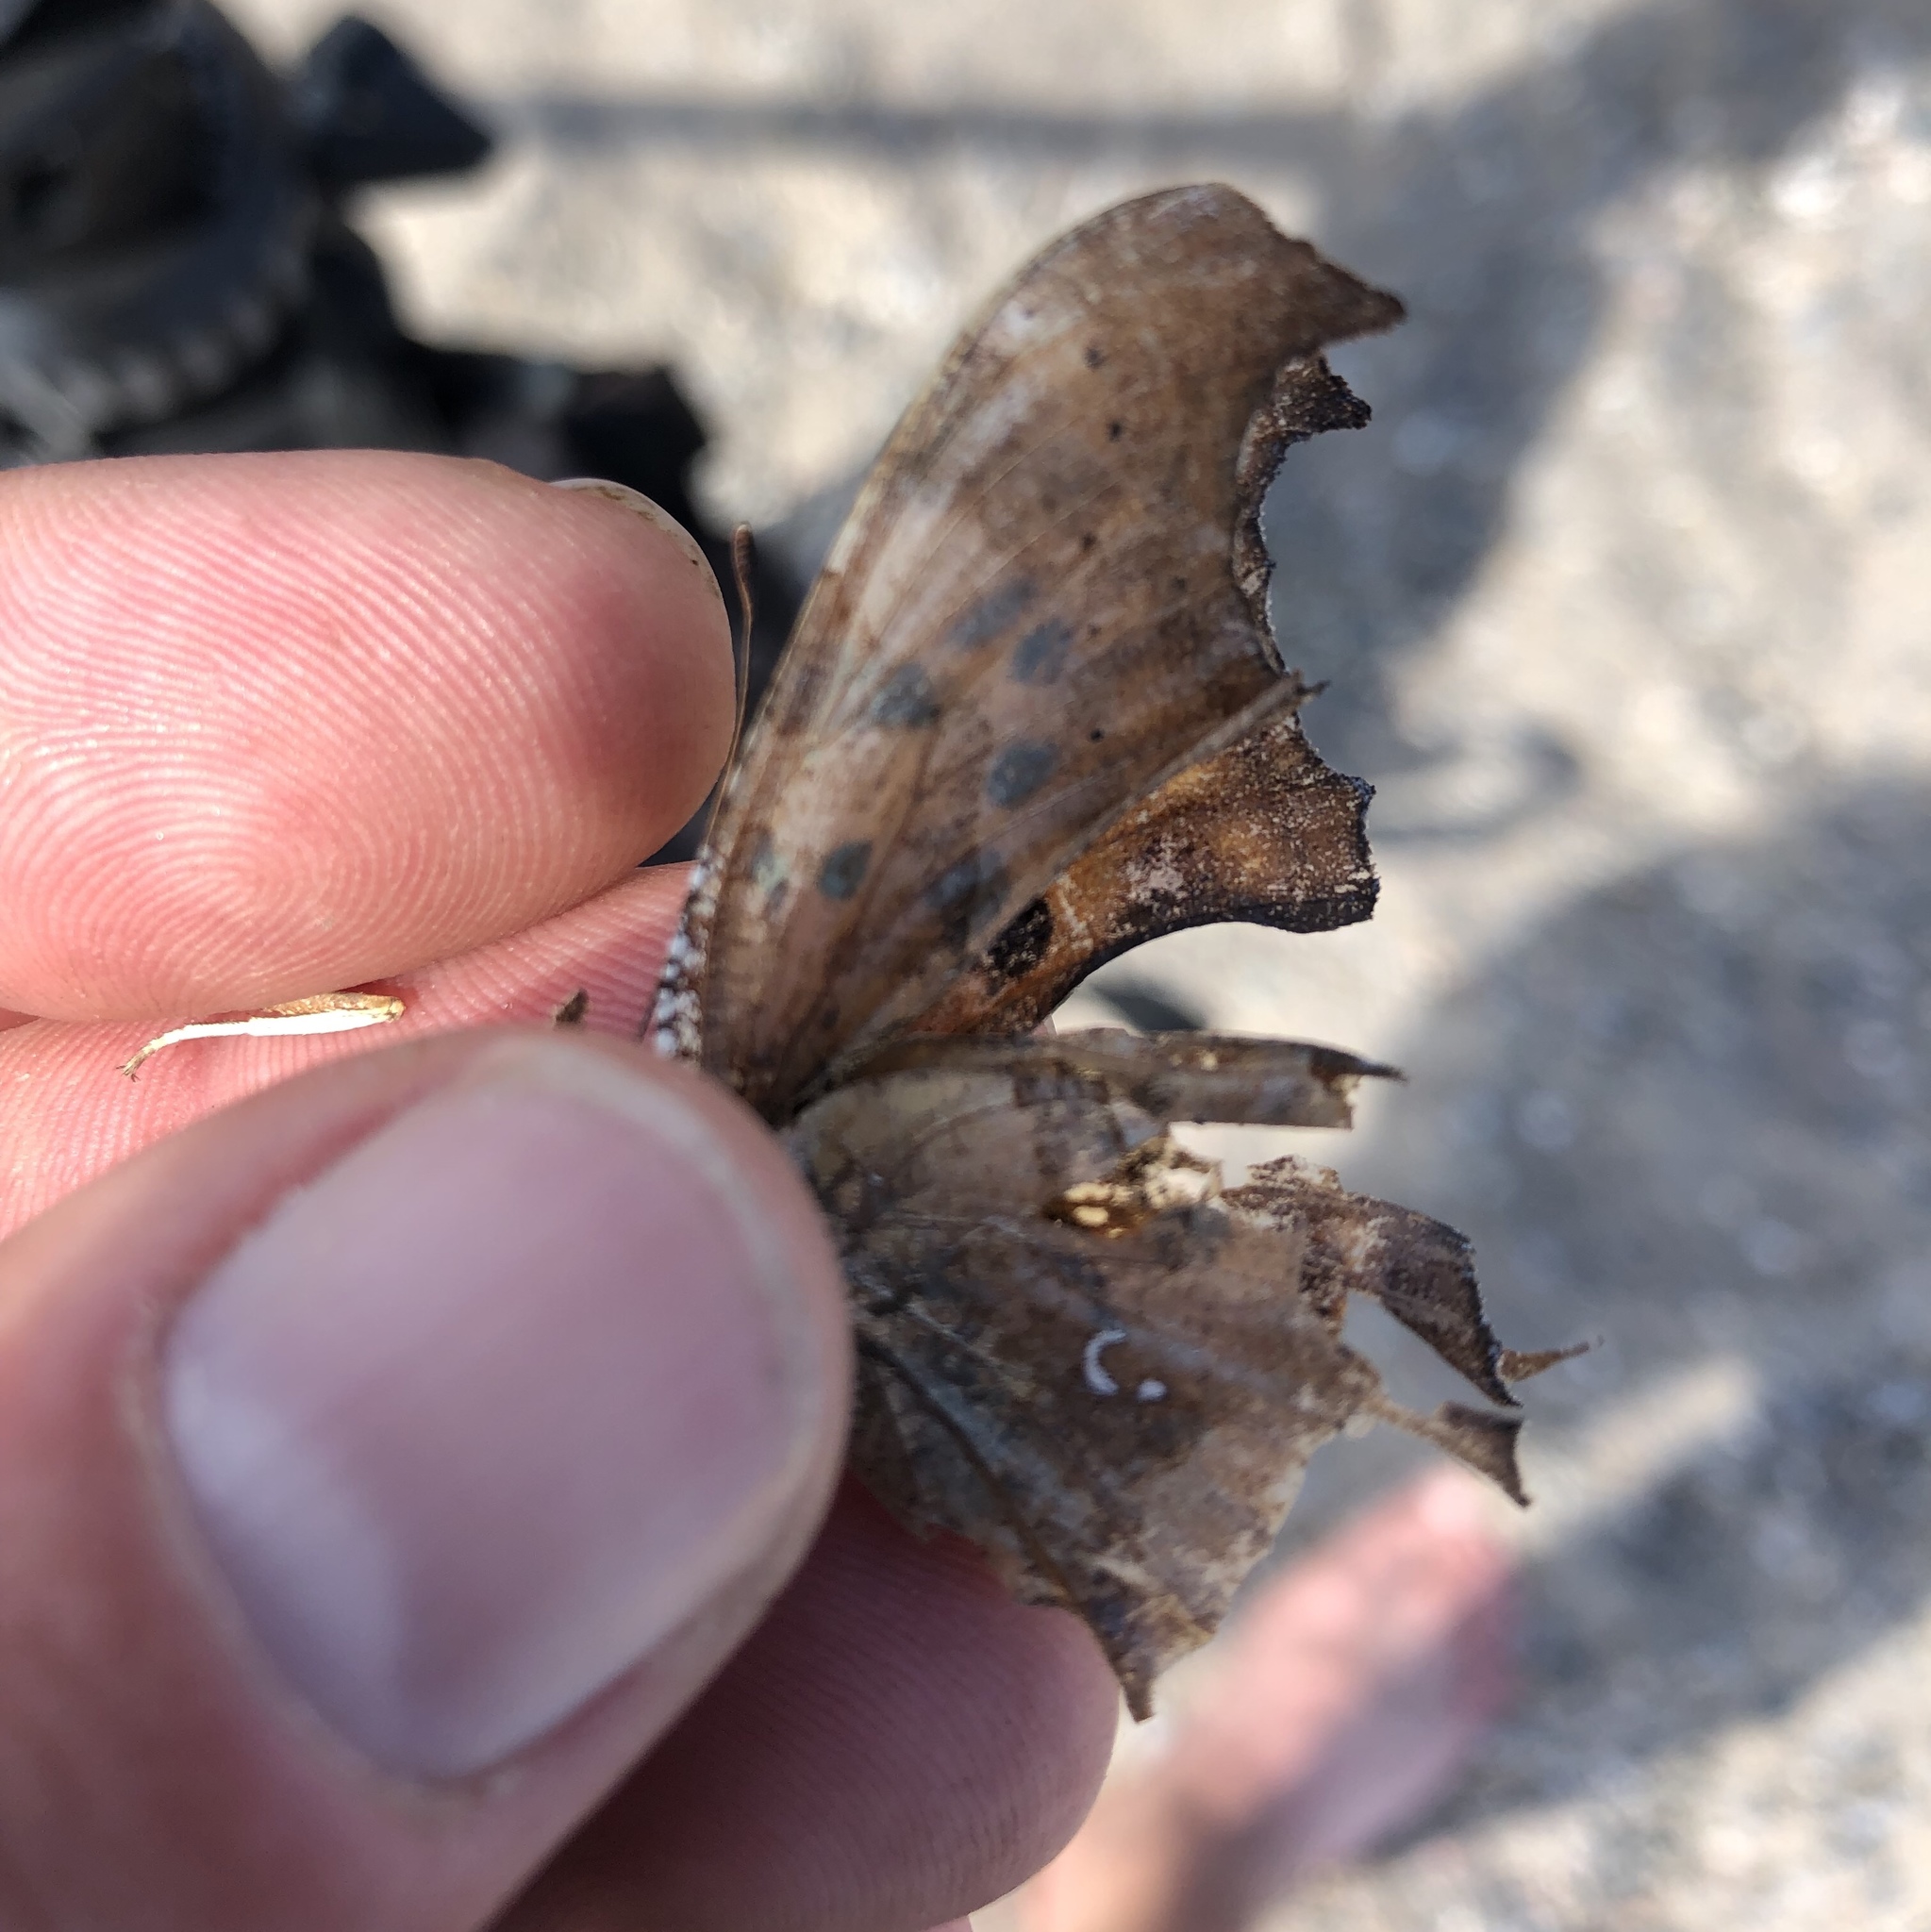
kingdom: Animalia
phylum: Arthropoda
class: Insecta
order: Lepidoptera
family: Nymphalidae
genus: Polygonia
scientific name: Polygonia interrogationis
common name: Question mark
